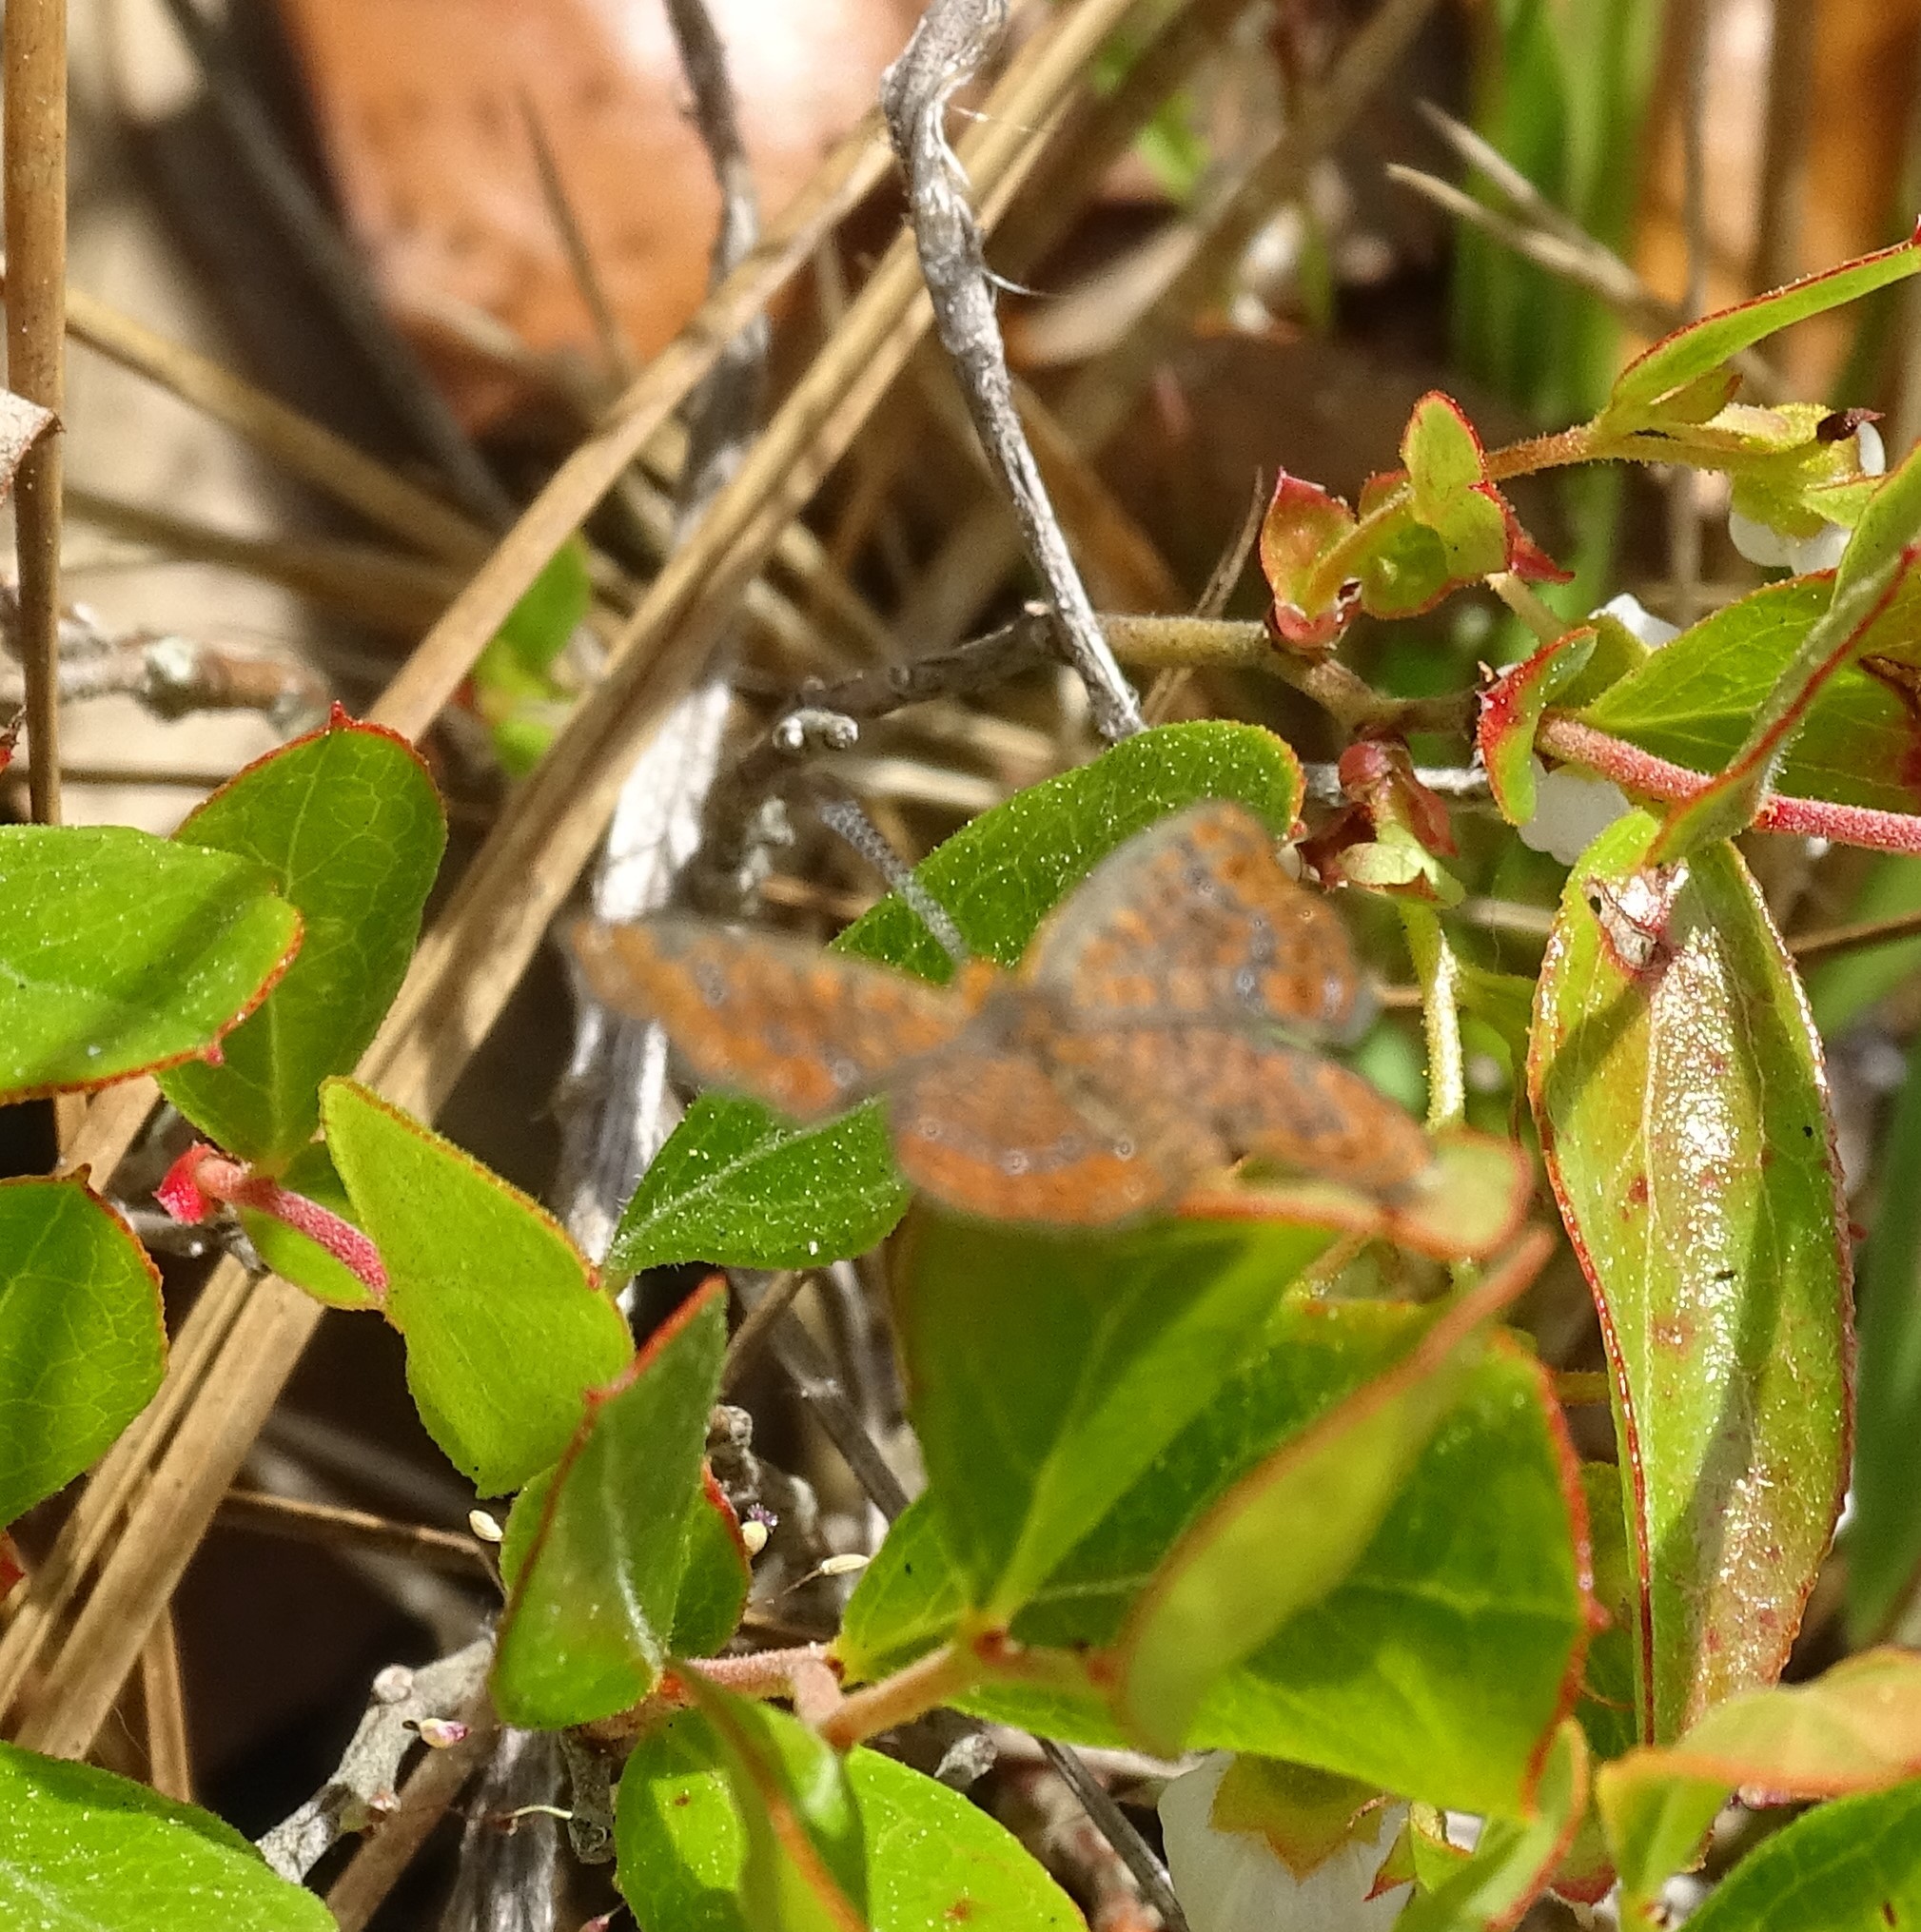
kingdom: Animalia
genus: Calephelis
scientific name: Calephelis virginiensis
